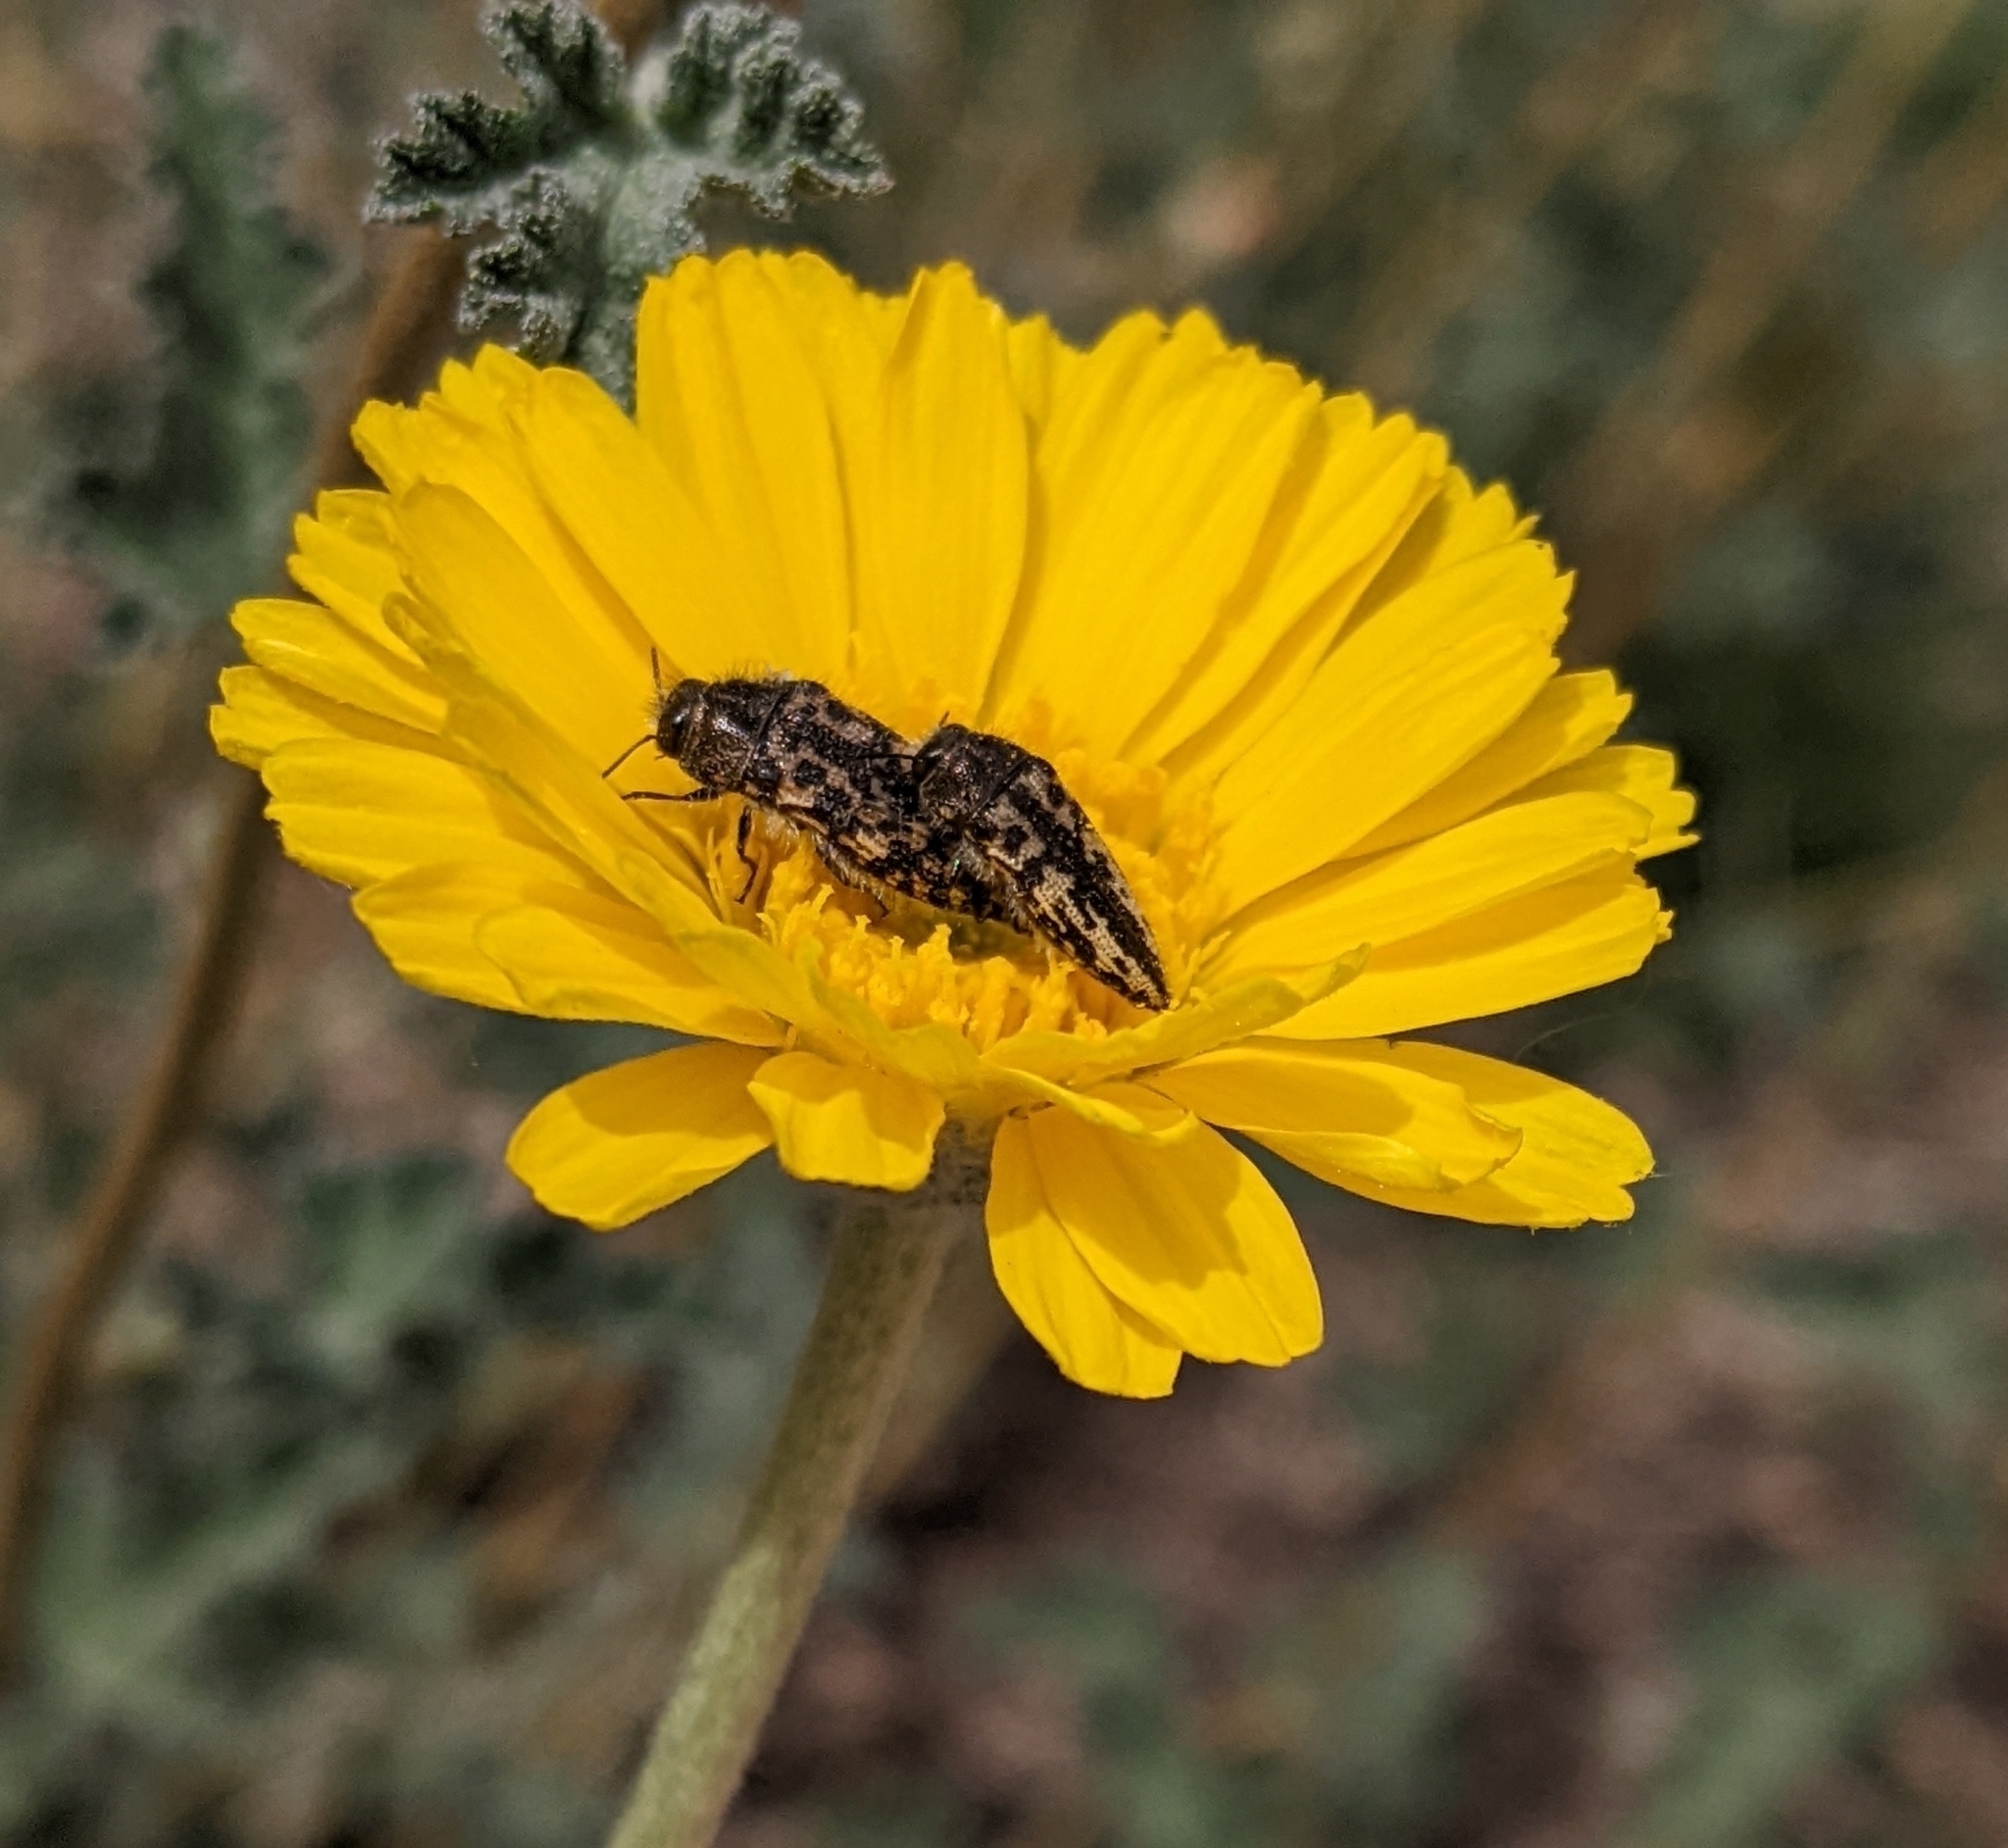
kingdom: Animalia
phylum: Arthropoda
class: Insecta
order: Coleoptera
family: Buprestidae
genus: Acmaeodera
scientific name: Acmaeodera cuneata
